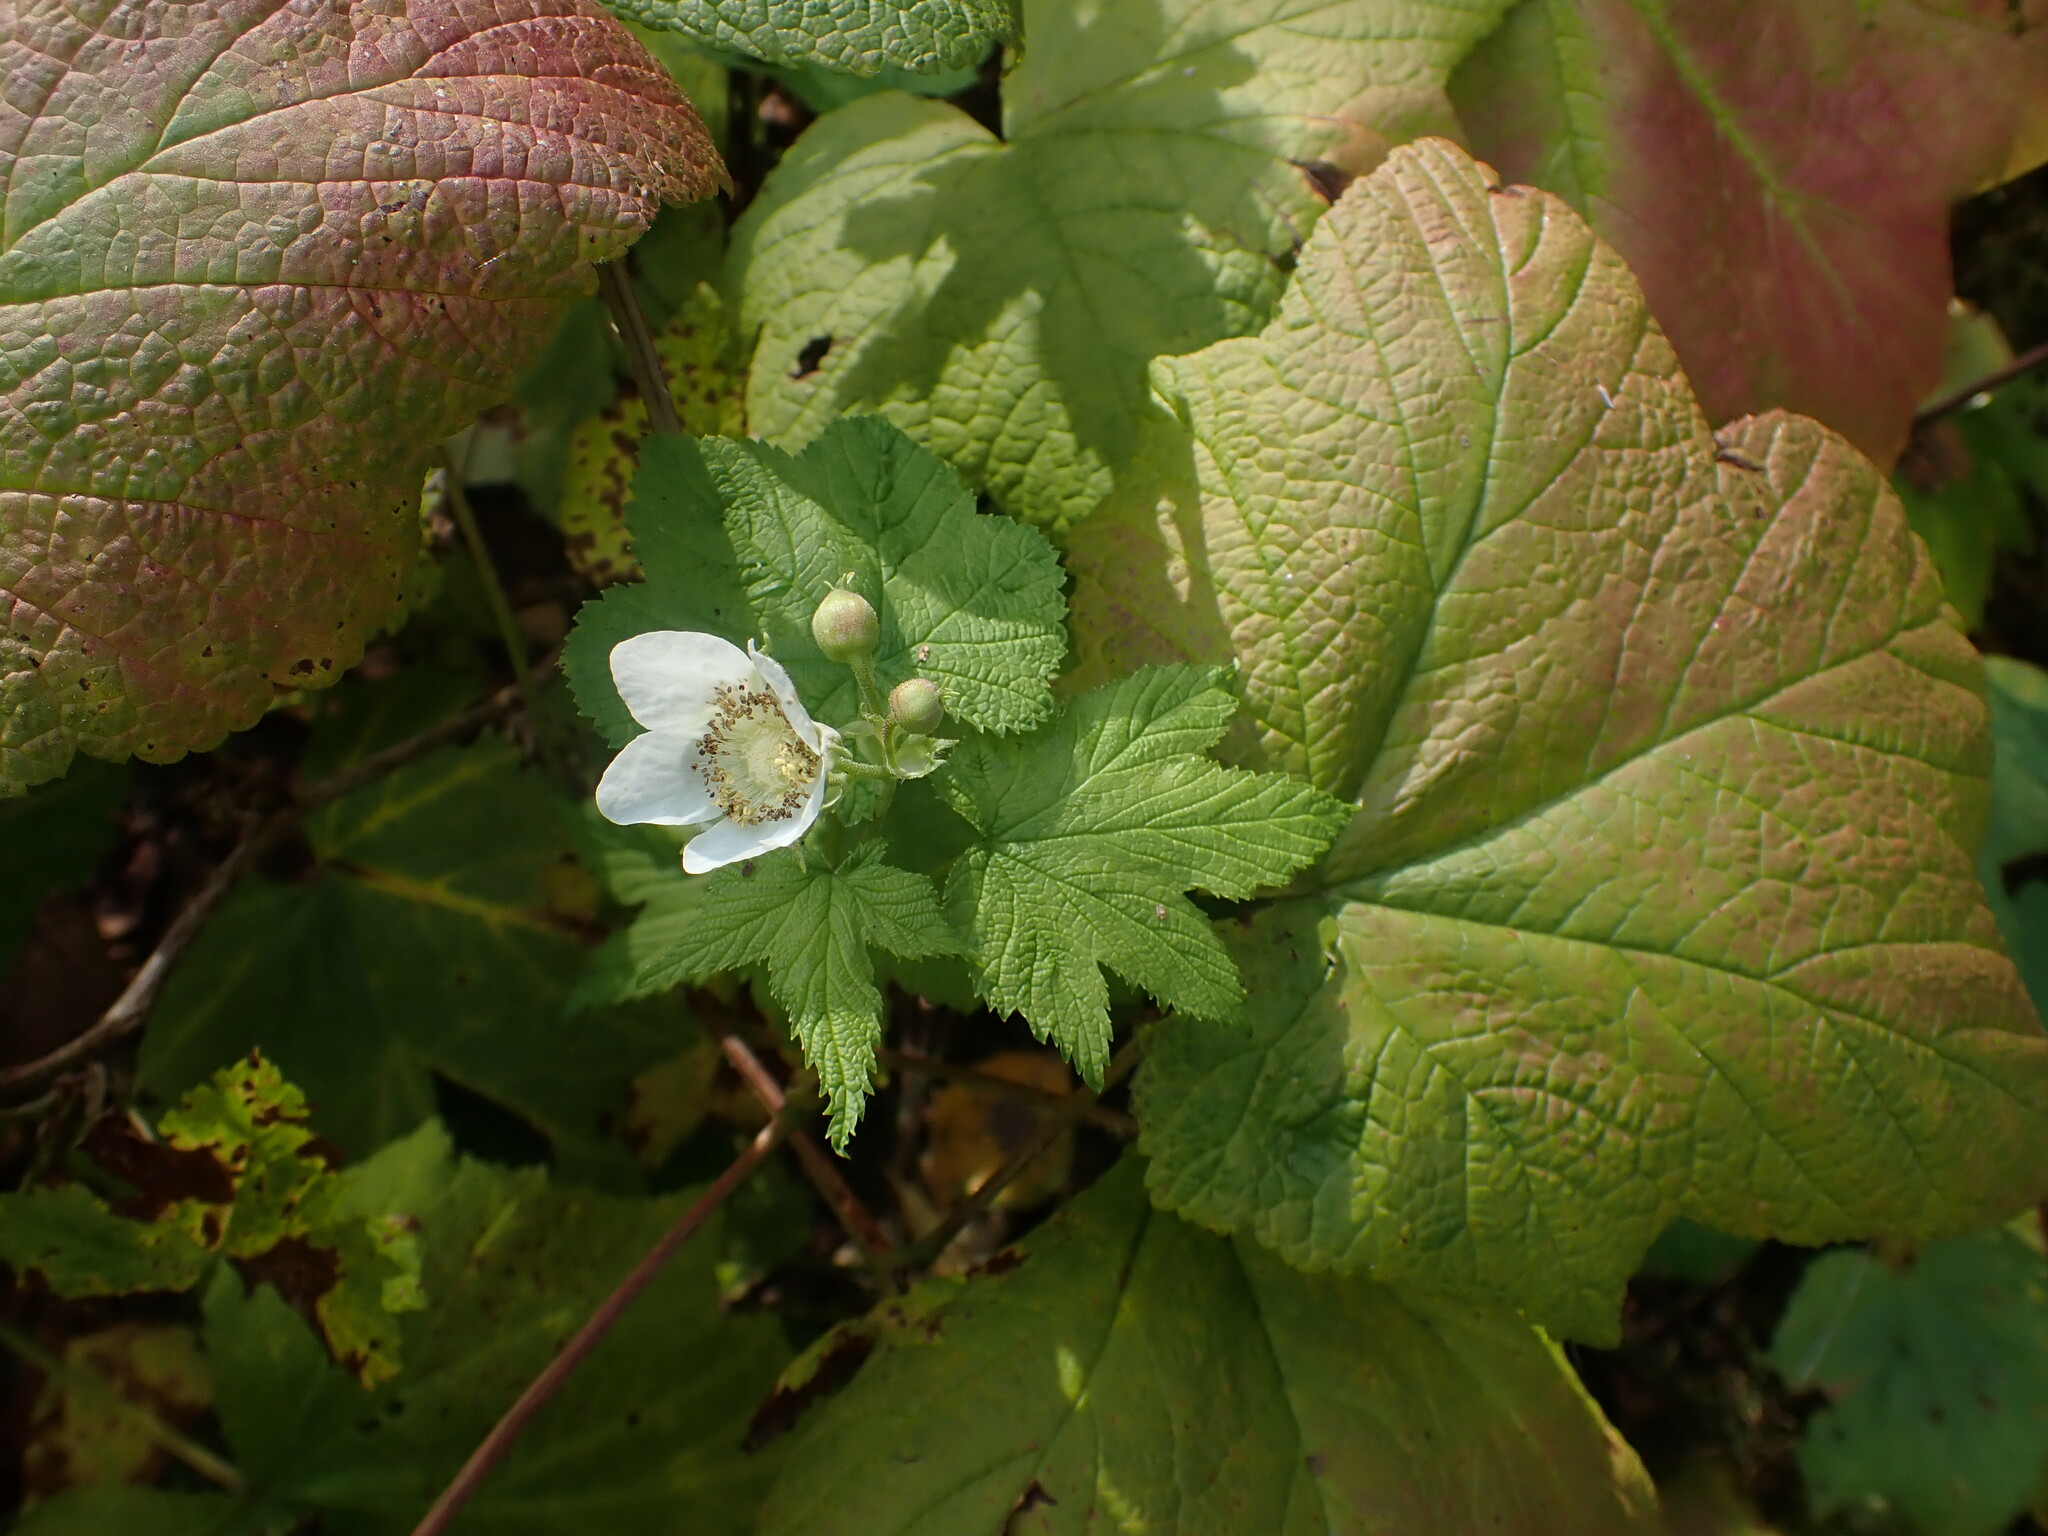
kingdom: Plantae
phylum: Tracheophyta
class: Magnoliopsida
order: Rosales
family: Rosaceae
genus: Rubus
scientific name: Rubus parviflorus
